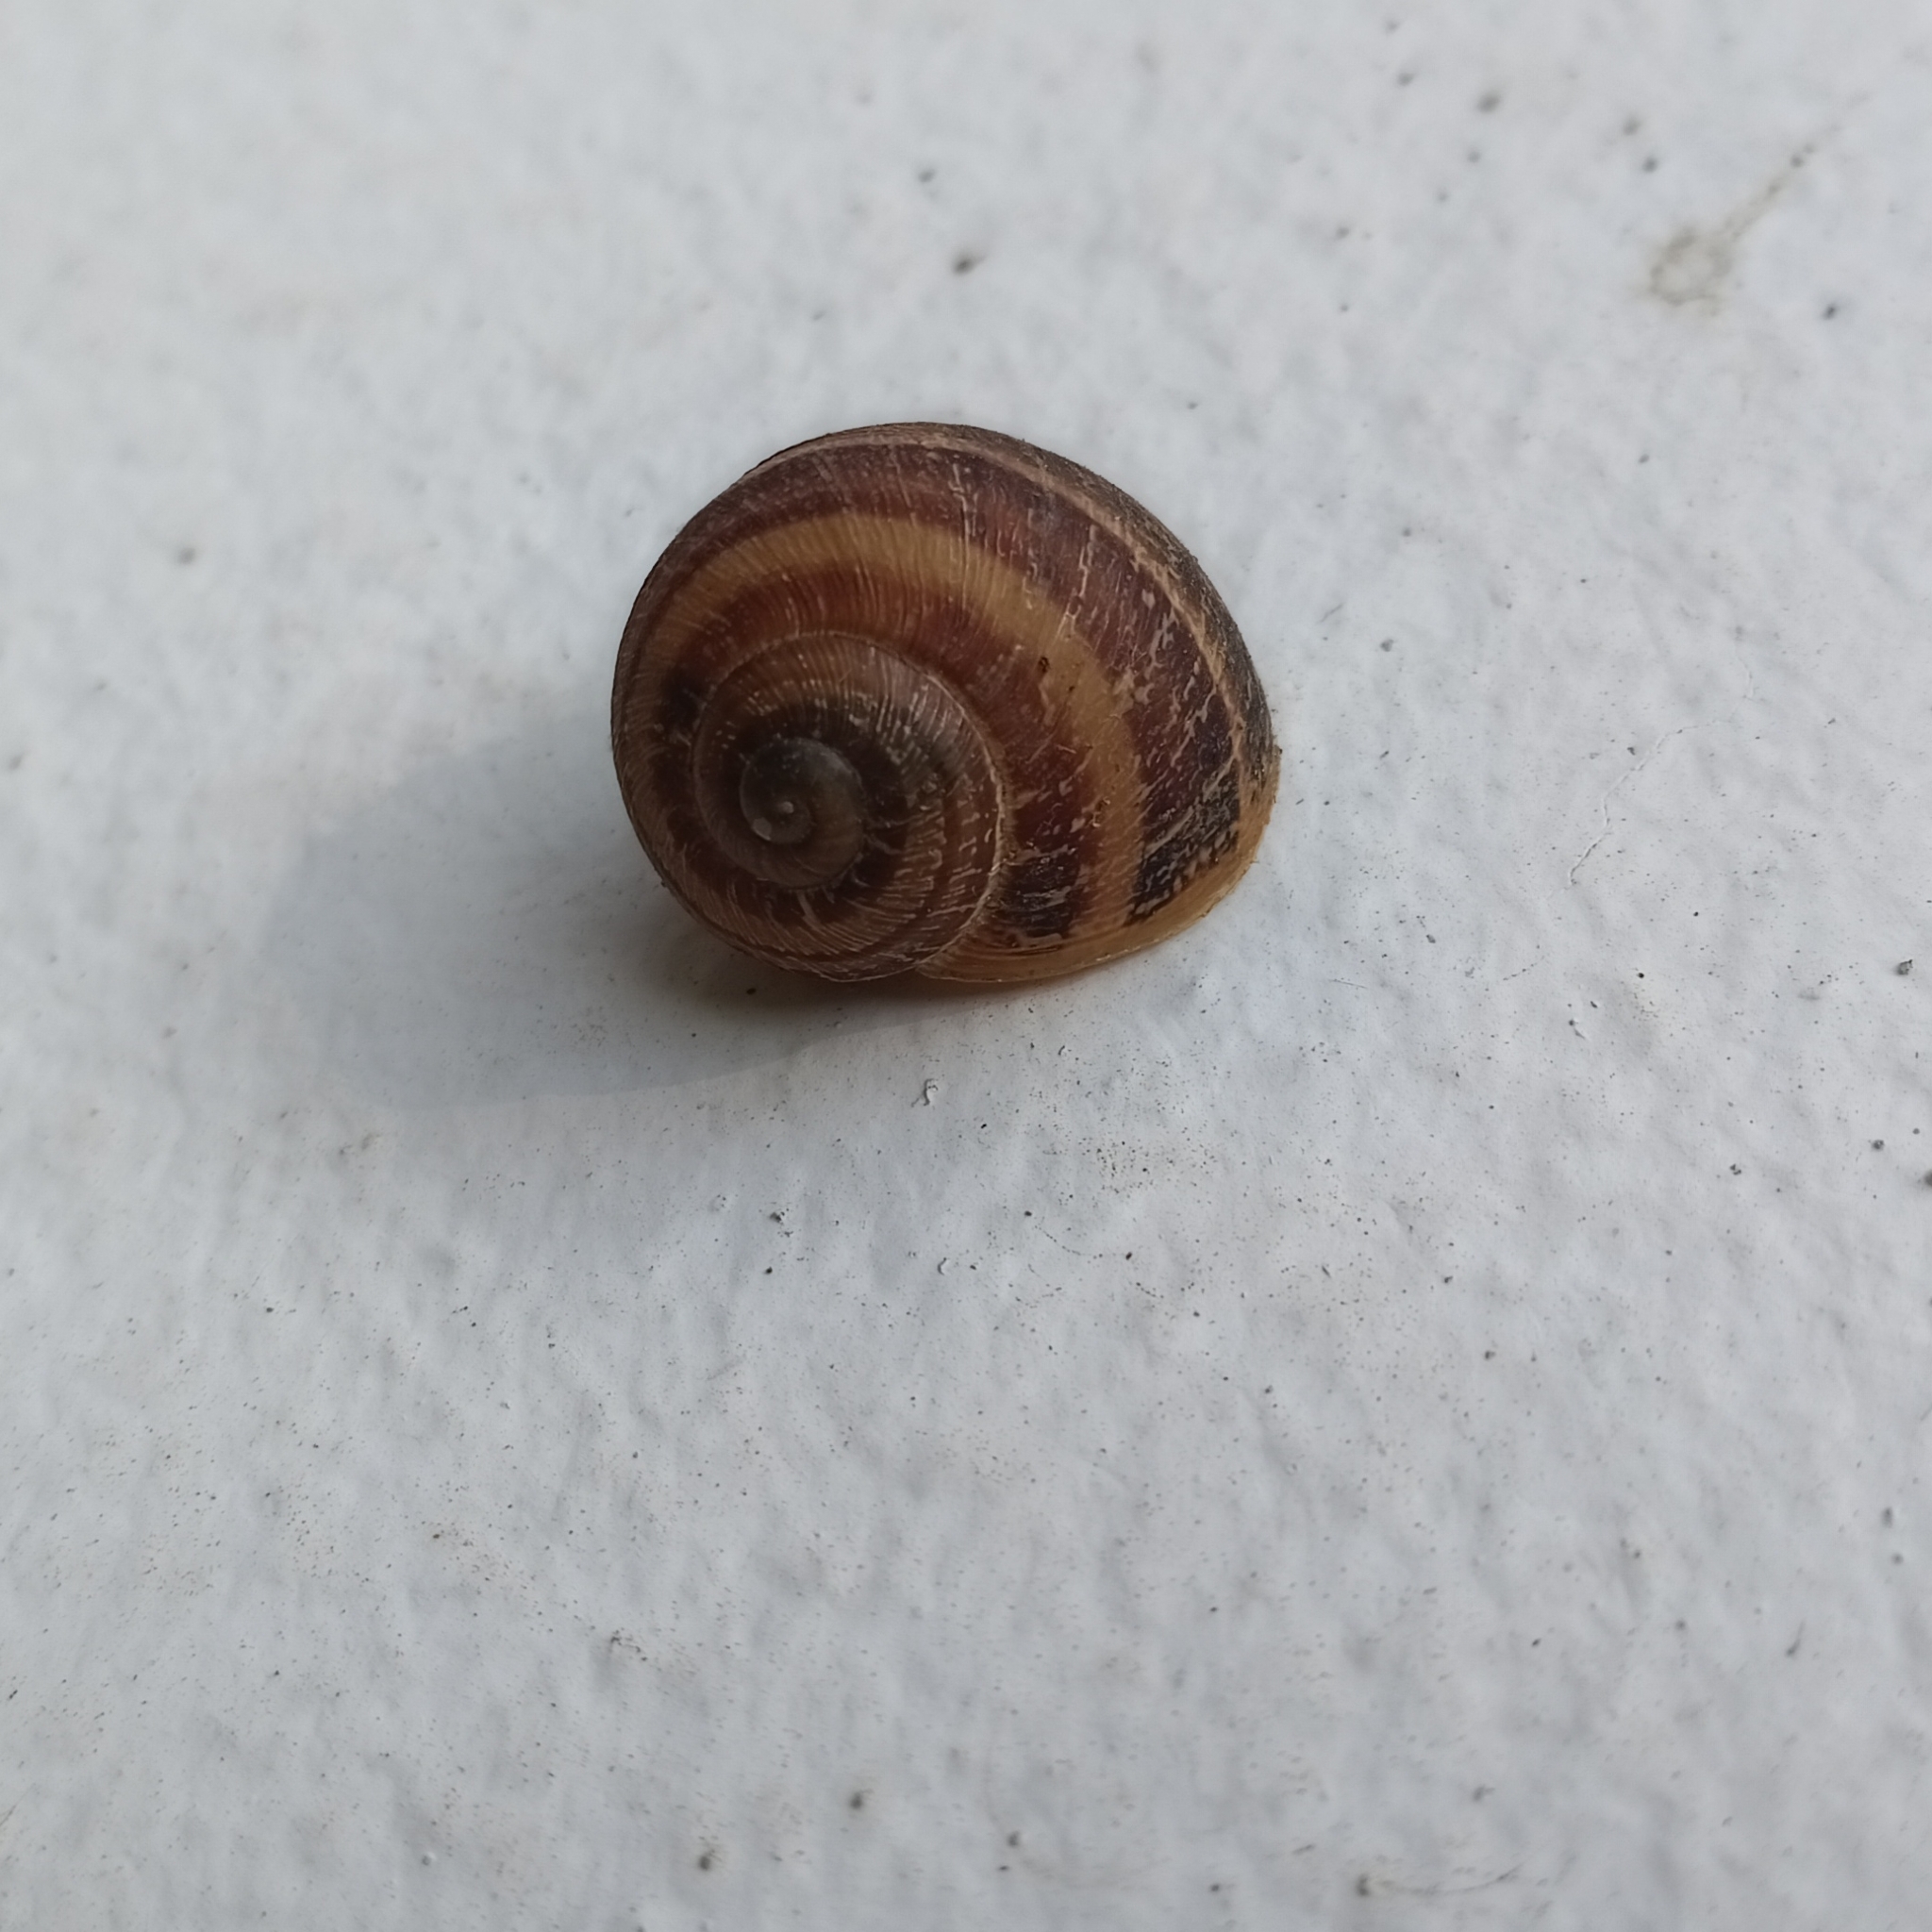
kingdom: Animalia
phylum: Mollusca
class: Gastropoda
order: Stylommatophora
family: Helicidae
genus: Cornu
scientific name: Cornu aspersum
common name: Brown garden snail
